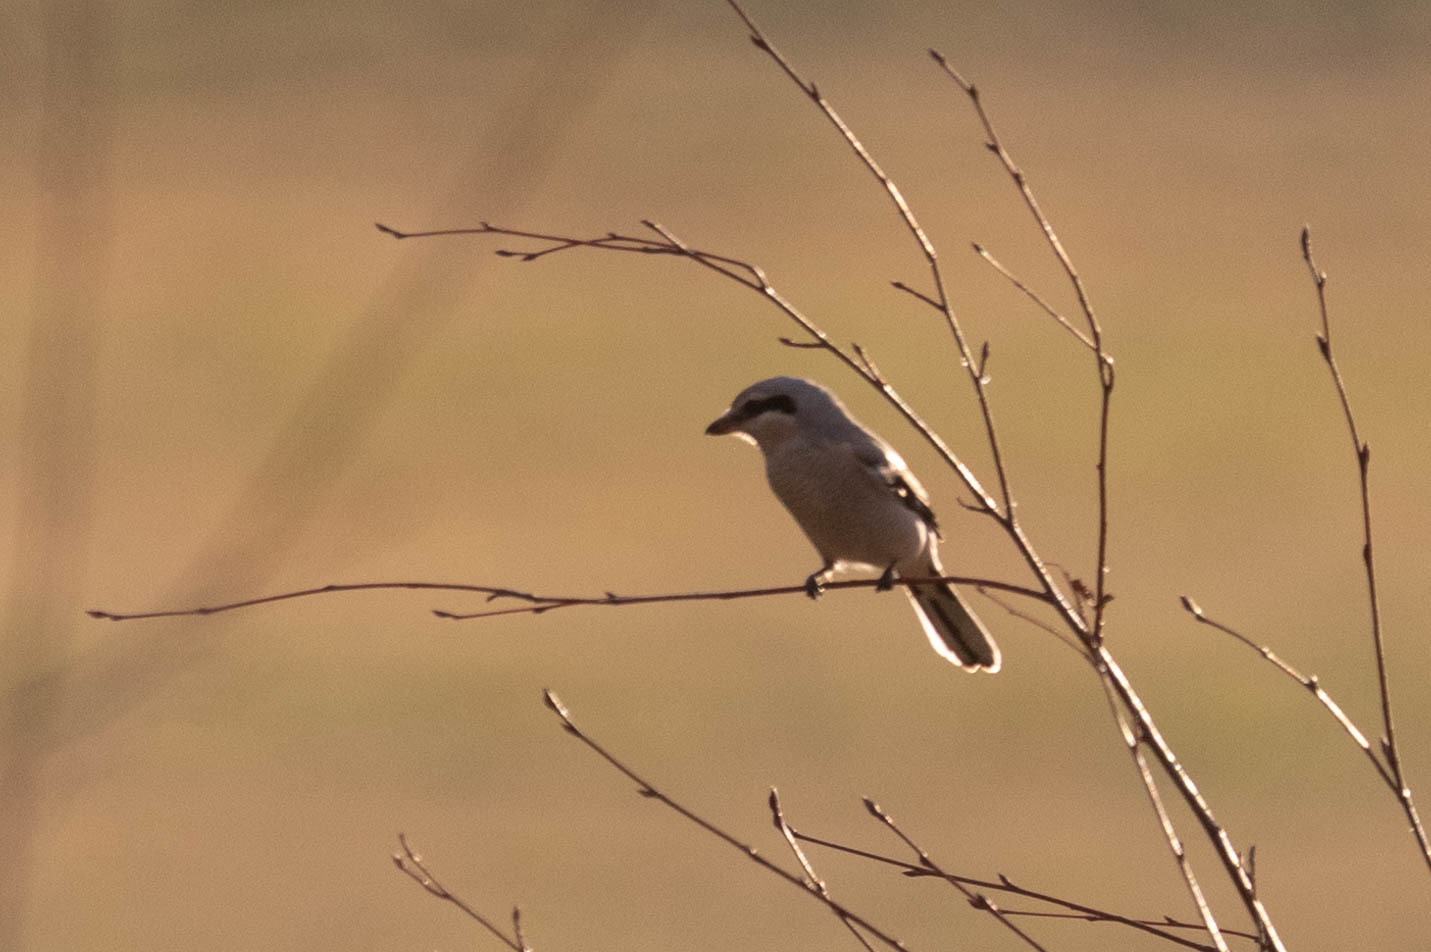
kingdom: Animalia
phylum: Chordata
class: Aves
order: Passeriformes
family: Laniidae
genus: Lanius
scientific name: Lanius borealis
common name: Northern shrike
